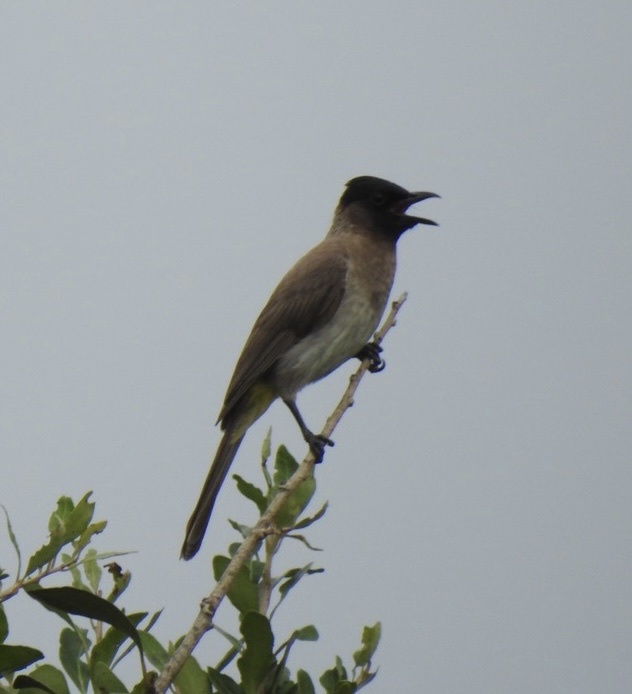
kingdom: Animalia
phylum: Chordata
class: Aves
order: Passeriformes
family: Pycnonotidae
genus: Pycnonotus
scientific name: Pycnonotus barbatus
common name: Common bulbul
